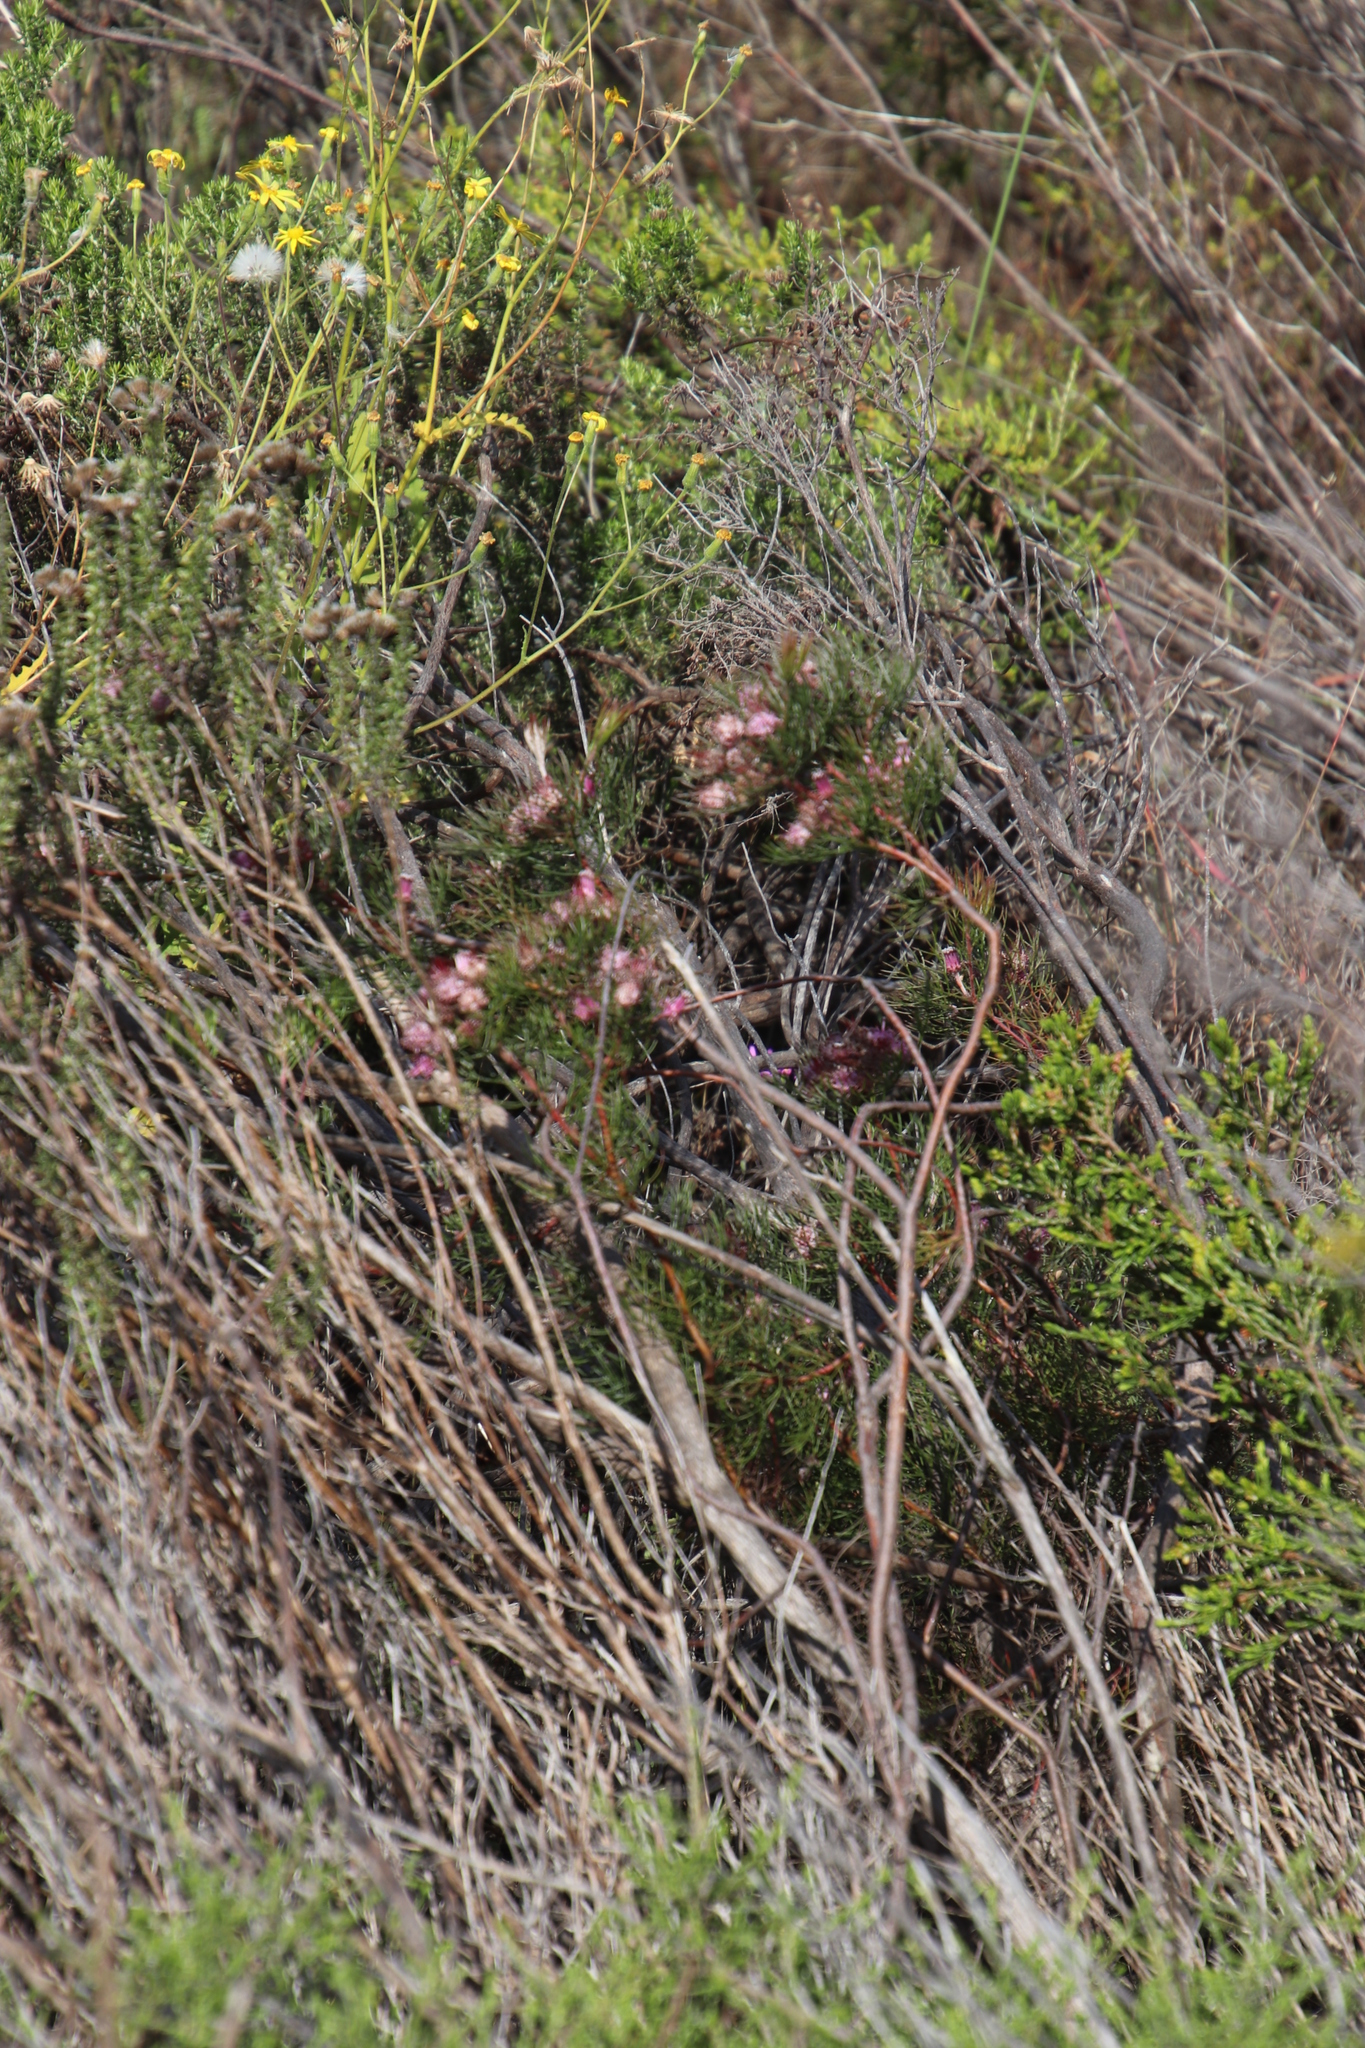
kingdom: Plantae
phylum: Tracheophyta
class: Magnoliopsida
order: Proteales
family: Proteaceae
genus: Serruria
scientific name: Serruria fasciflora
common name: Common pin spiderhead
